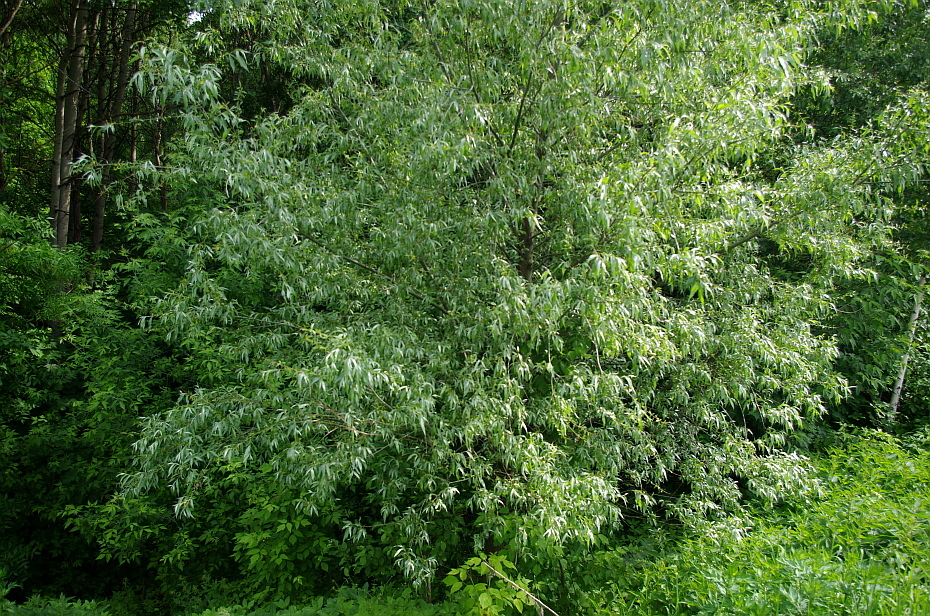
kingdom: Plantae
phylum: Tracheophyta
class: Magnoliopsida
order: Malpighiales
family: Salicaceae
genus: Salix
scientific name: Salix alba
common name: White willow
